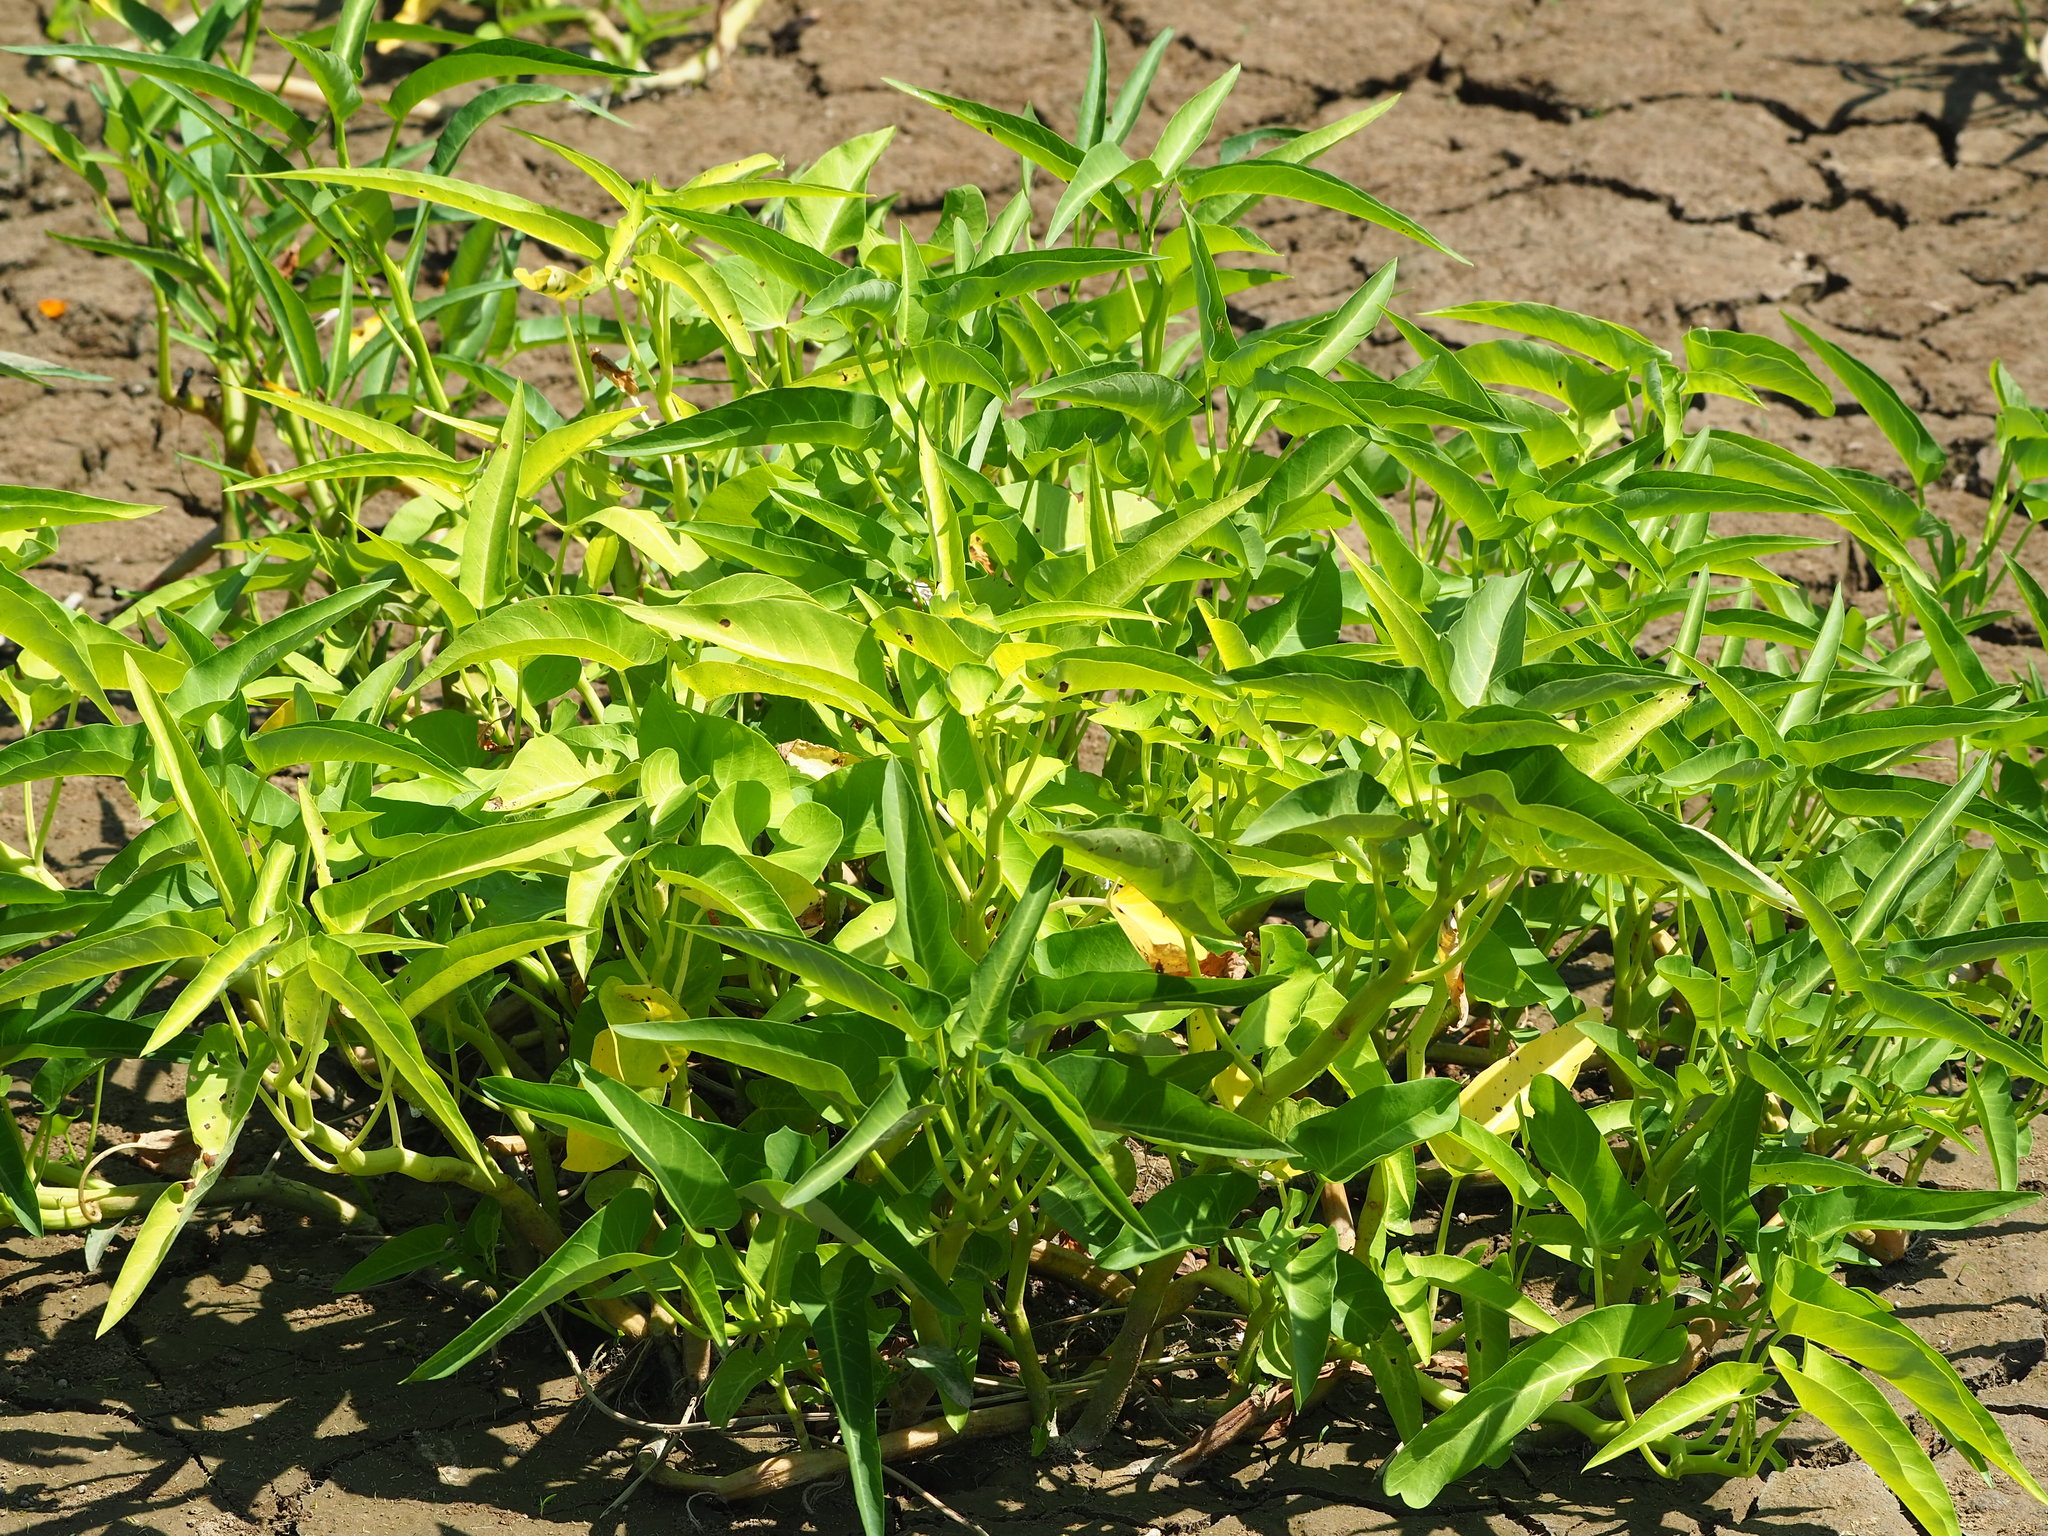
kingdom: Plantae
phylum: Tracheophyta
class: Magnoliopsida
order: Solanales
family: Convolvulaceae
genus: Ipomoea
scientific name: Ipomoea aquatica
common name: Swamp morning-glory
